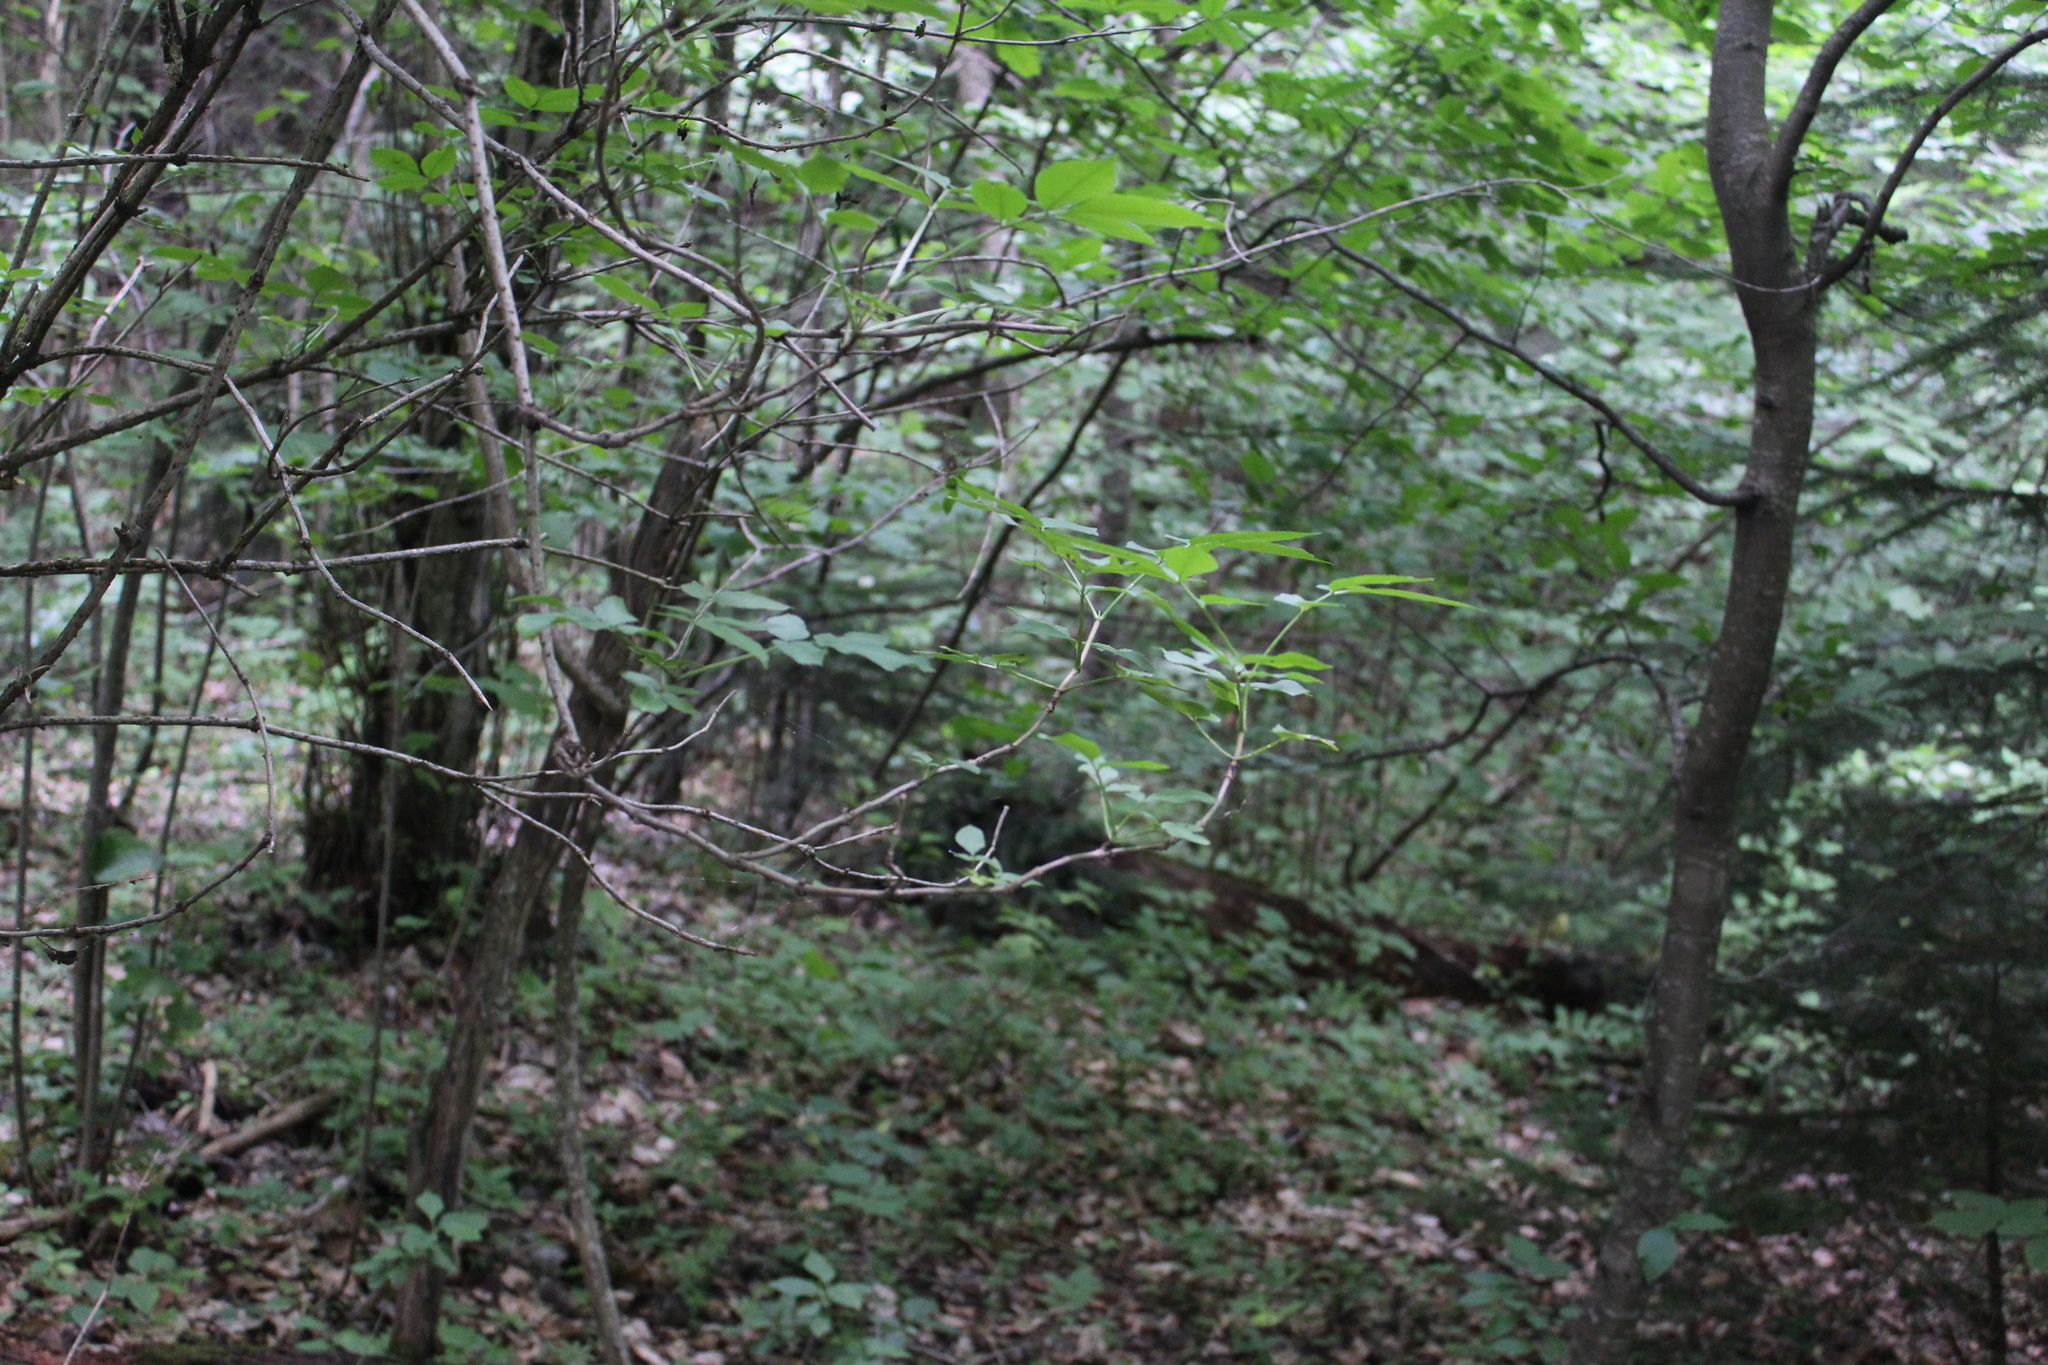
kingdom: Plantae
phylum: Tracheophyta
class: Magnoliopsida
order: Dipsacales
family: Viburnaceae
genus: Sambucus
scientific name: Sambucus nigra
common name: Elder
